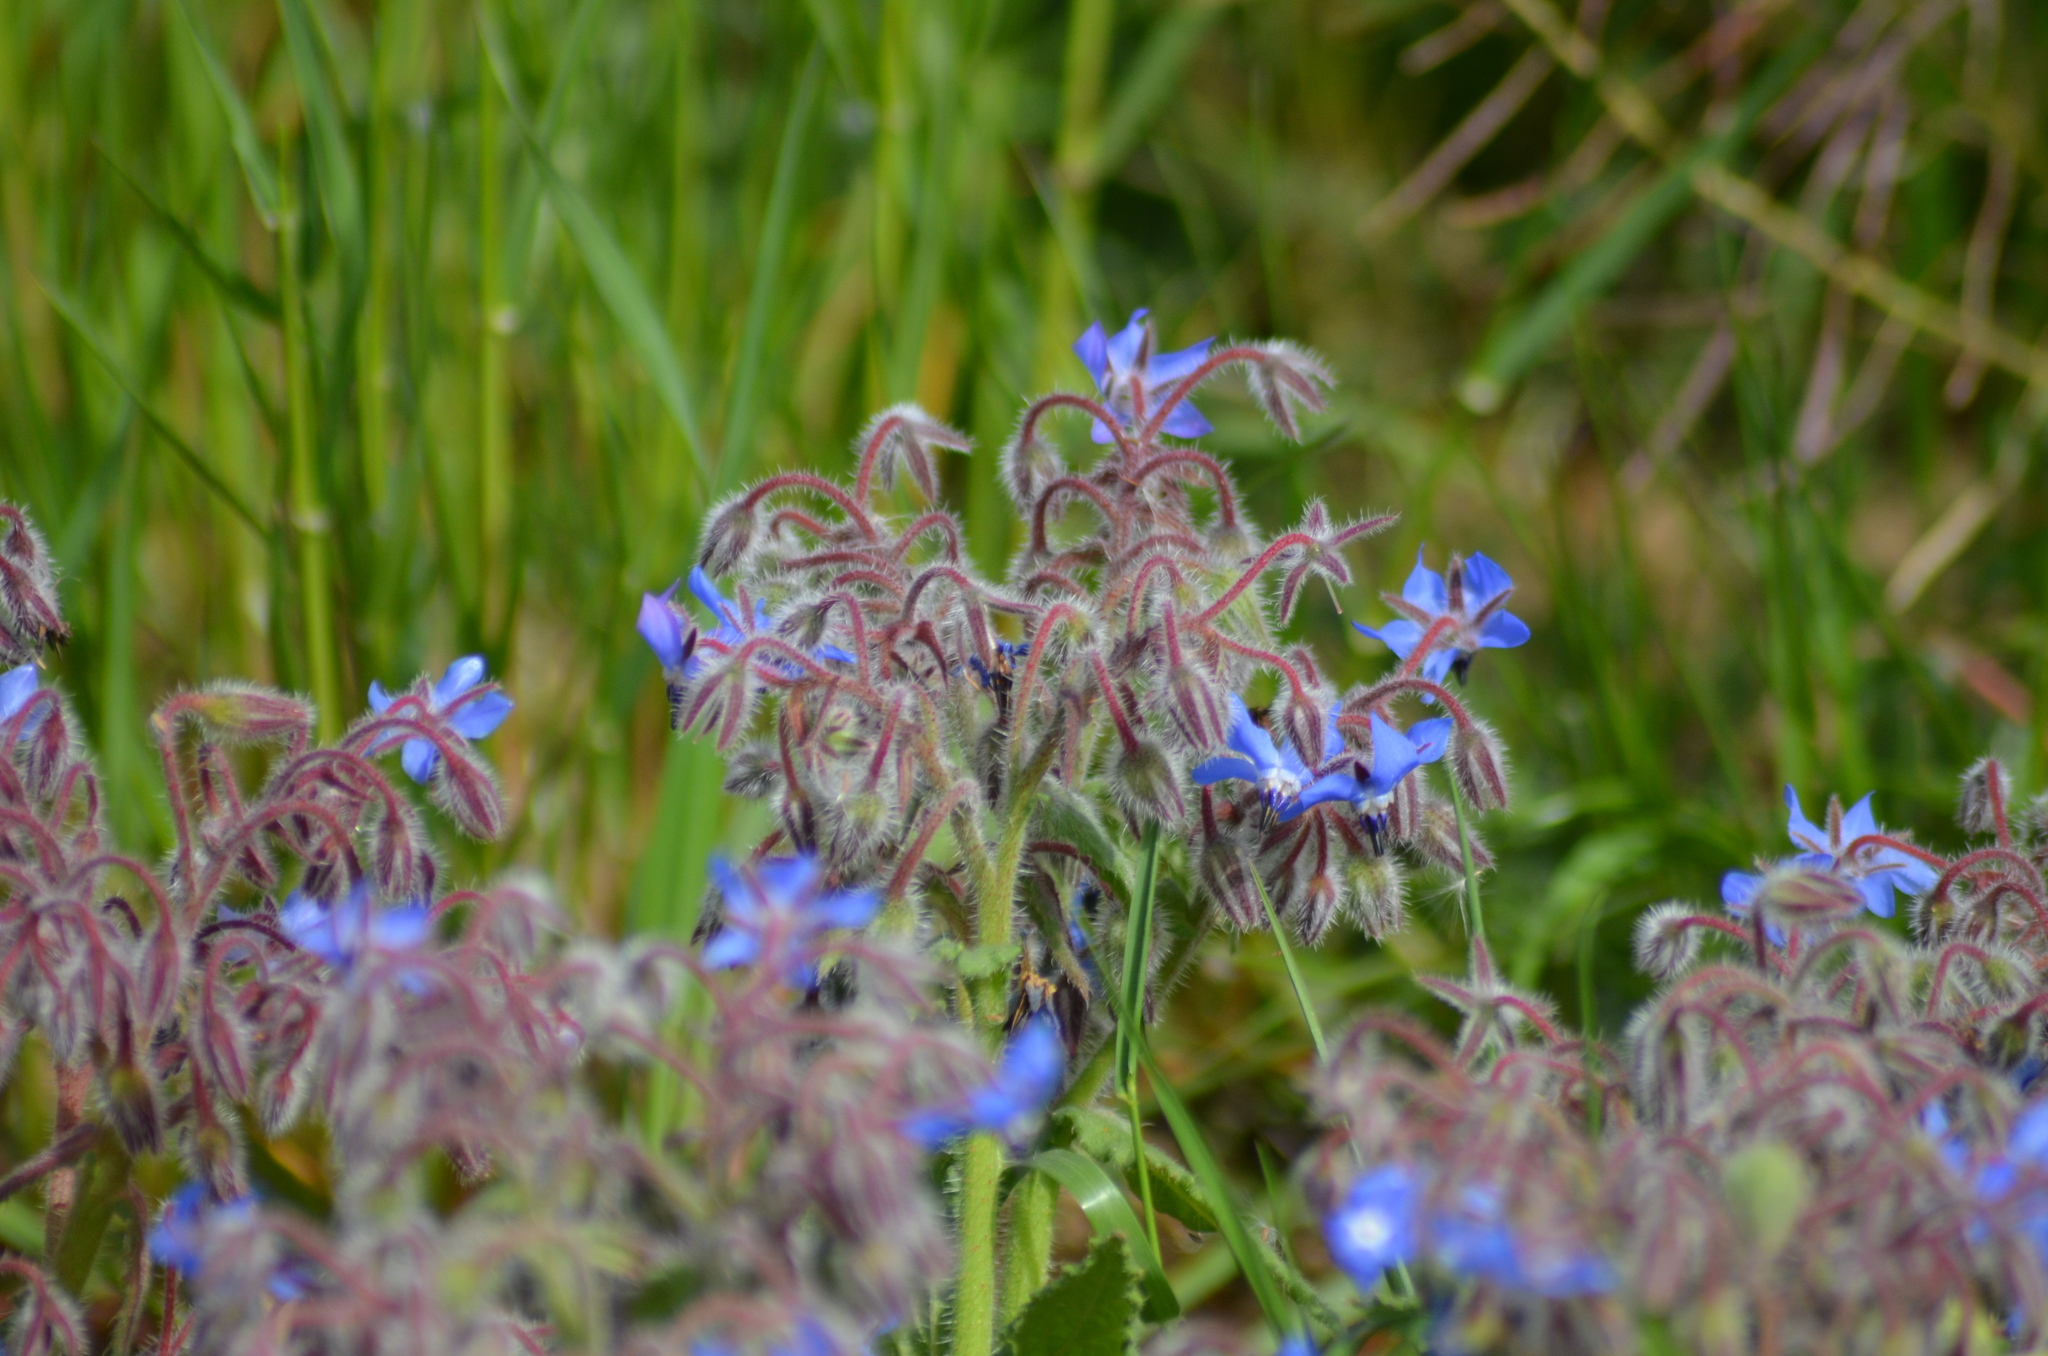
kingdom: Plantae
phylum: Tracheophyta
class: Magnoliopsida
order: Boraginales
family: Boraginaceae
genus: Borago
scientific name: Borago officinalis
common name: Borage
